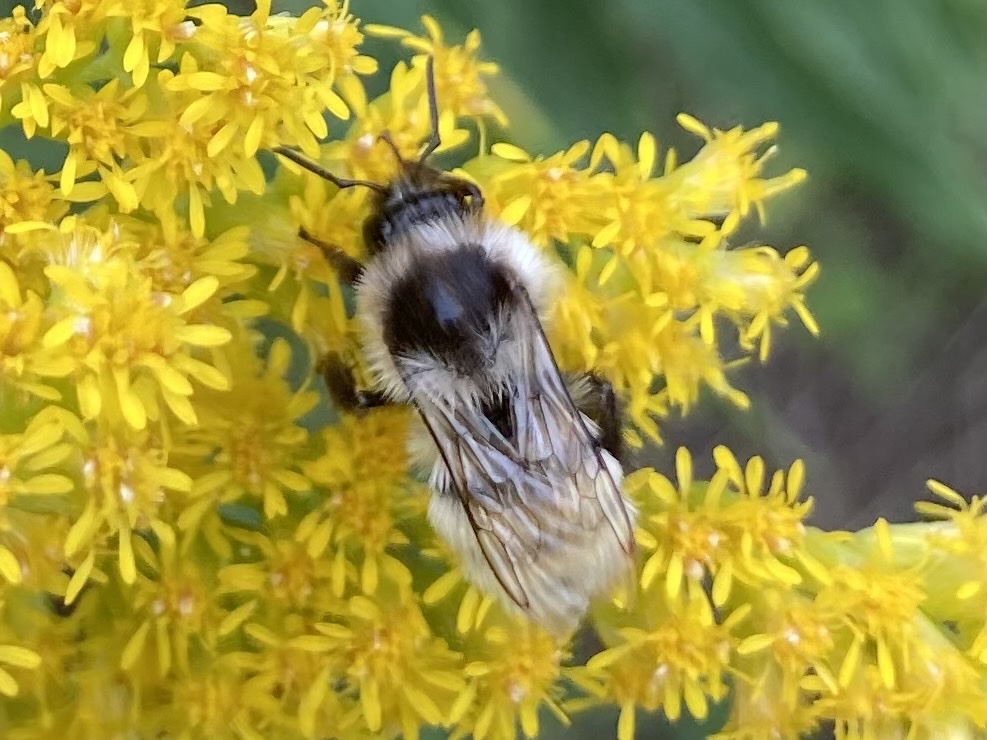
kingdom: Animalia
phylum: Arthropoda
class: Insecta
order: Hymenoptera
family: Apidae
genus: Bombus
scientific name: Bombus ternarius
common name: Tri-colored bumble bee
